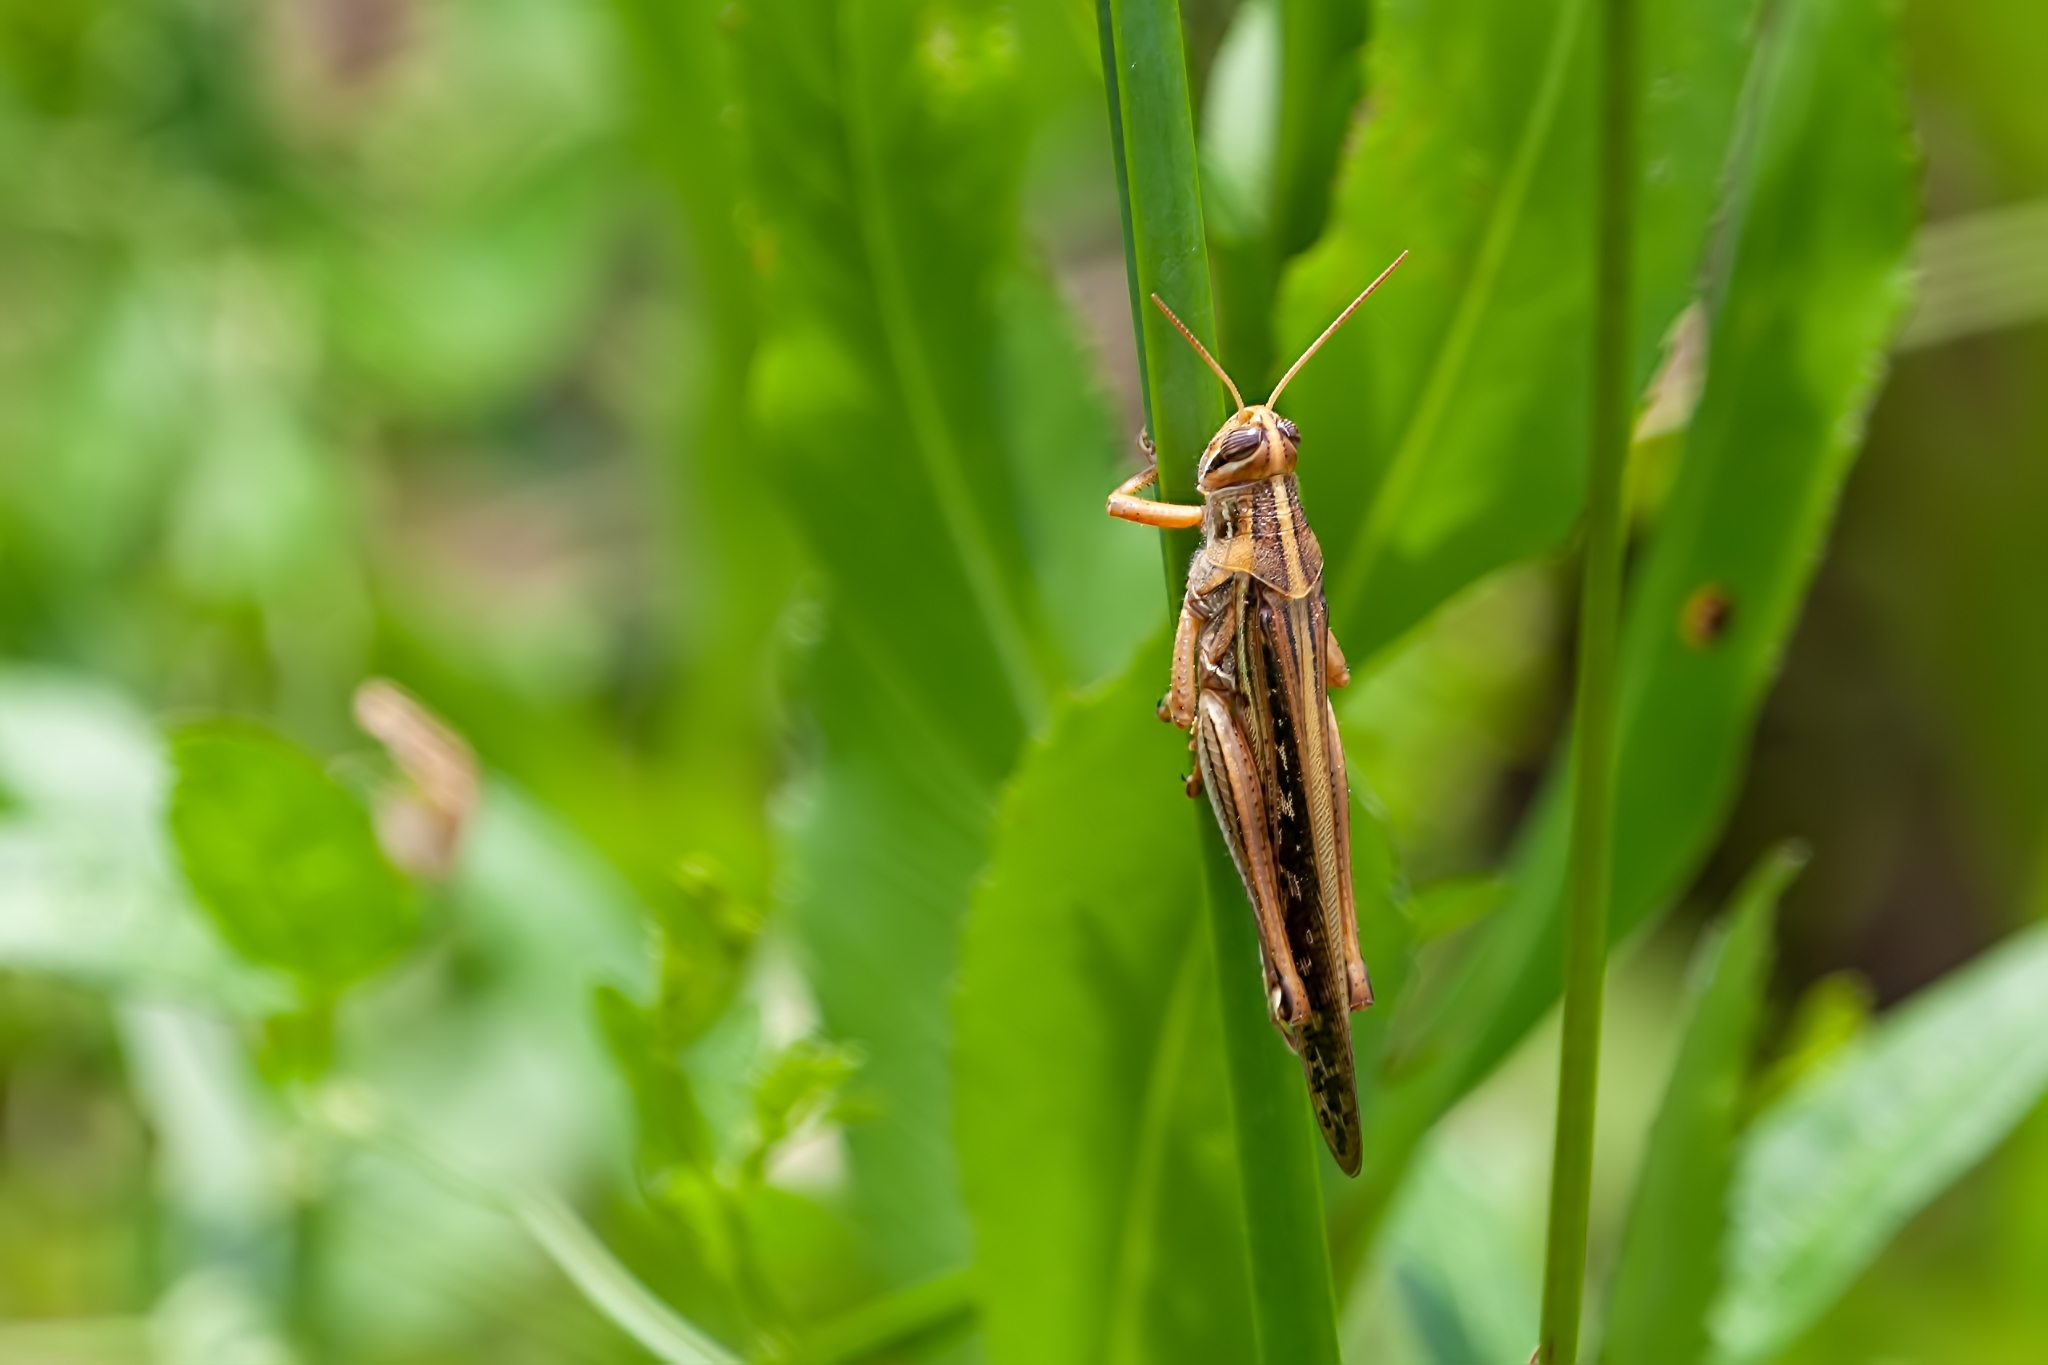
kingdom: Animalia
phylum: Arthropoda
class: Insecta
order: Orthoptera
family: Acrididae
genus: Schistocerca
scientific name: Schistocerca americana
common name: American bird locust
